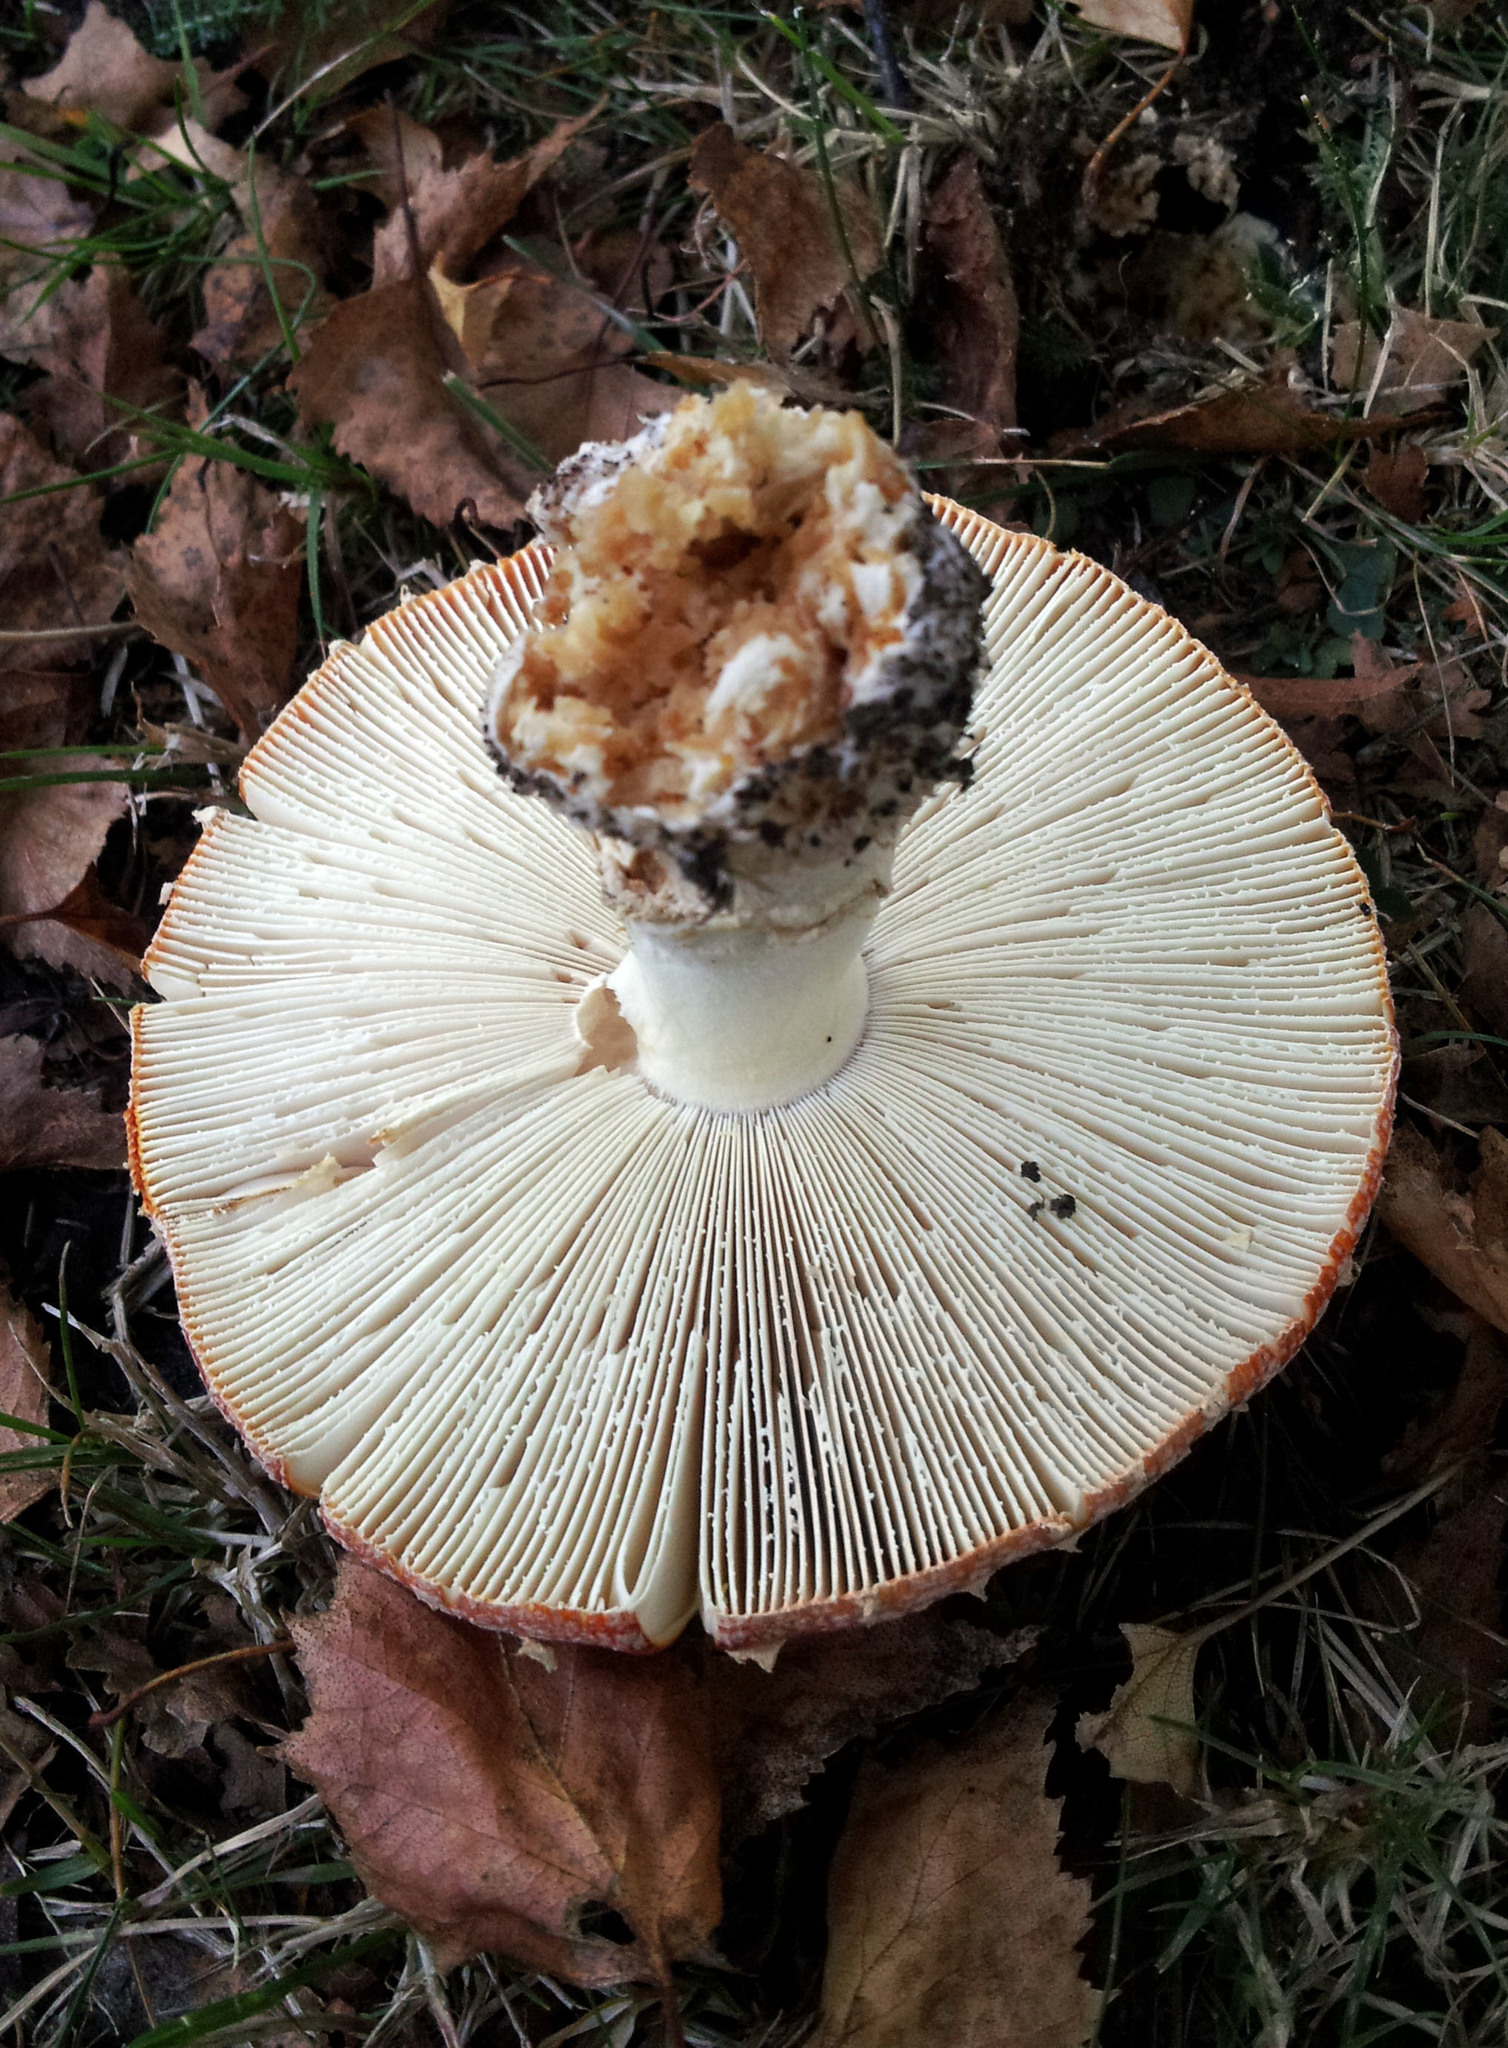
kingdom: Fungi
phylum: Basidiomycota
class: Agaricomycetes
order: Agaricales
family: Amanitaceae
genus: Amanita
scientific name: Amanita muscaria
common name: Fly agaric
